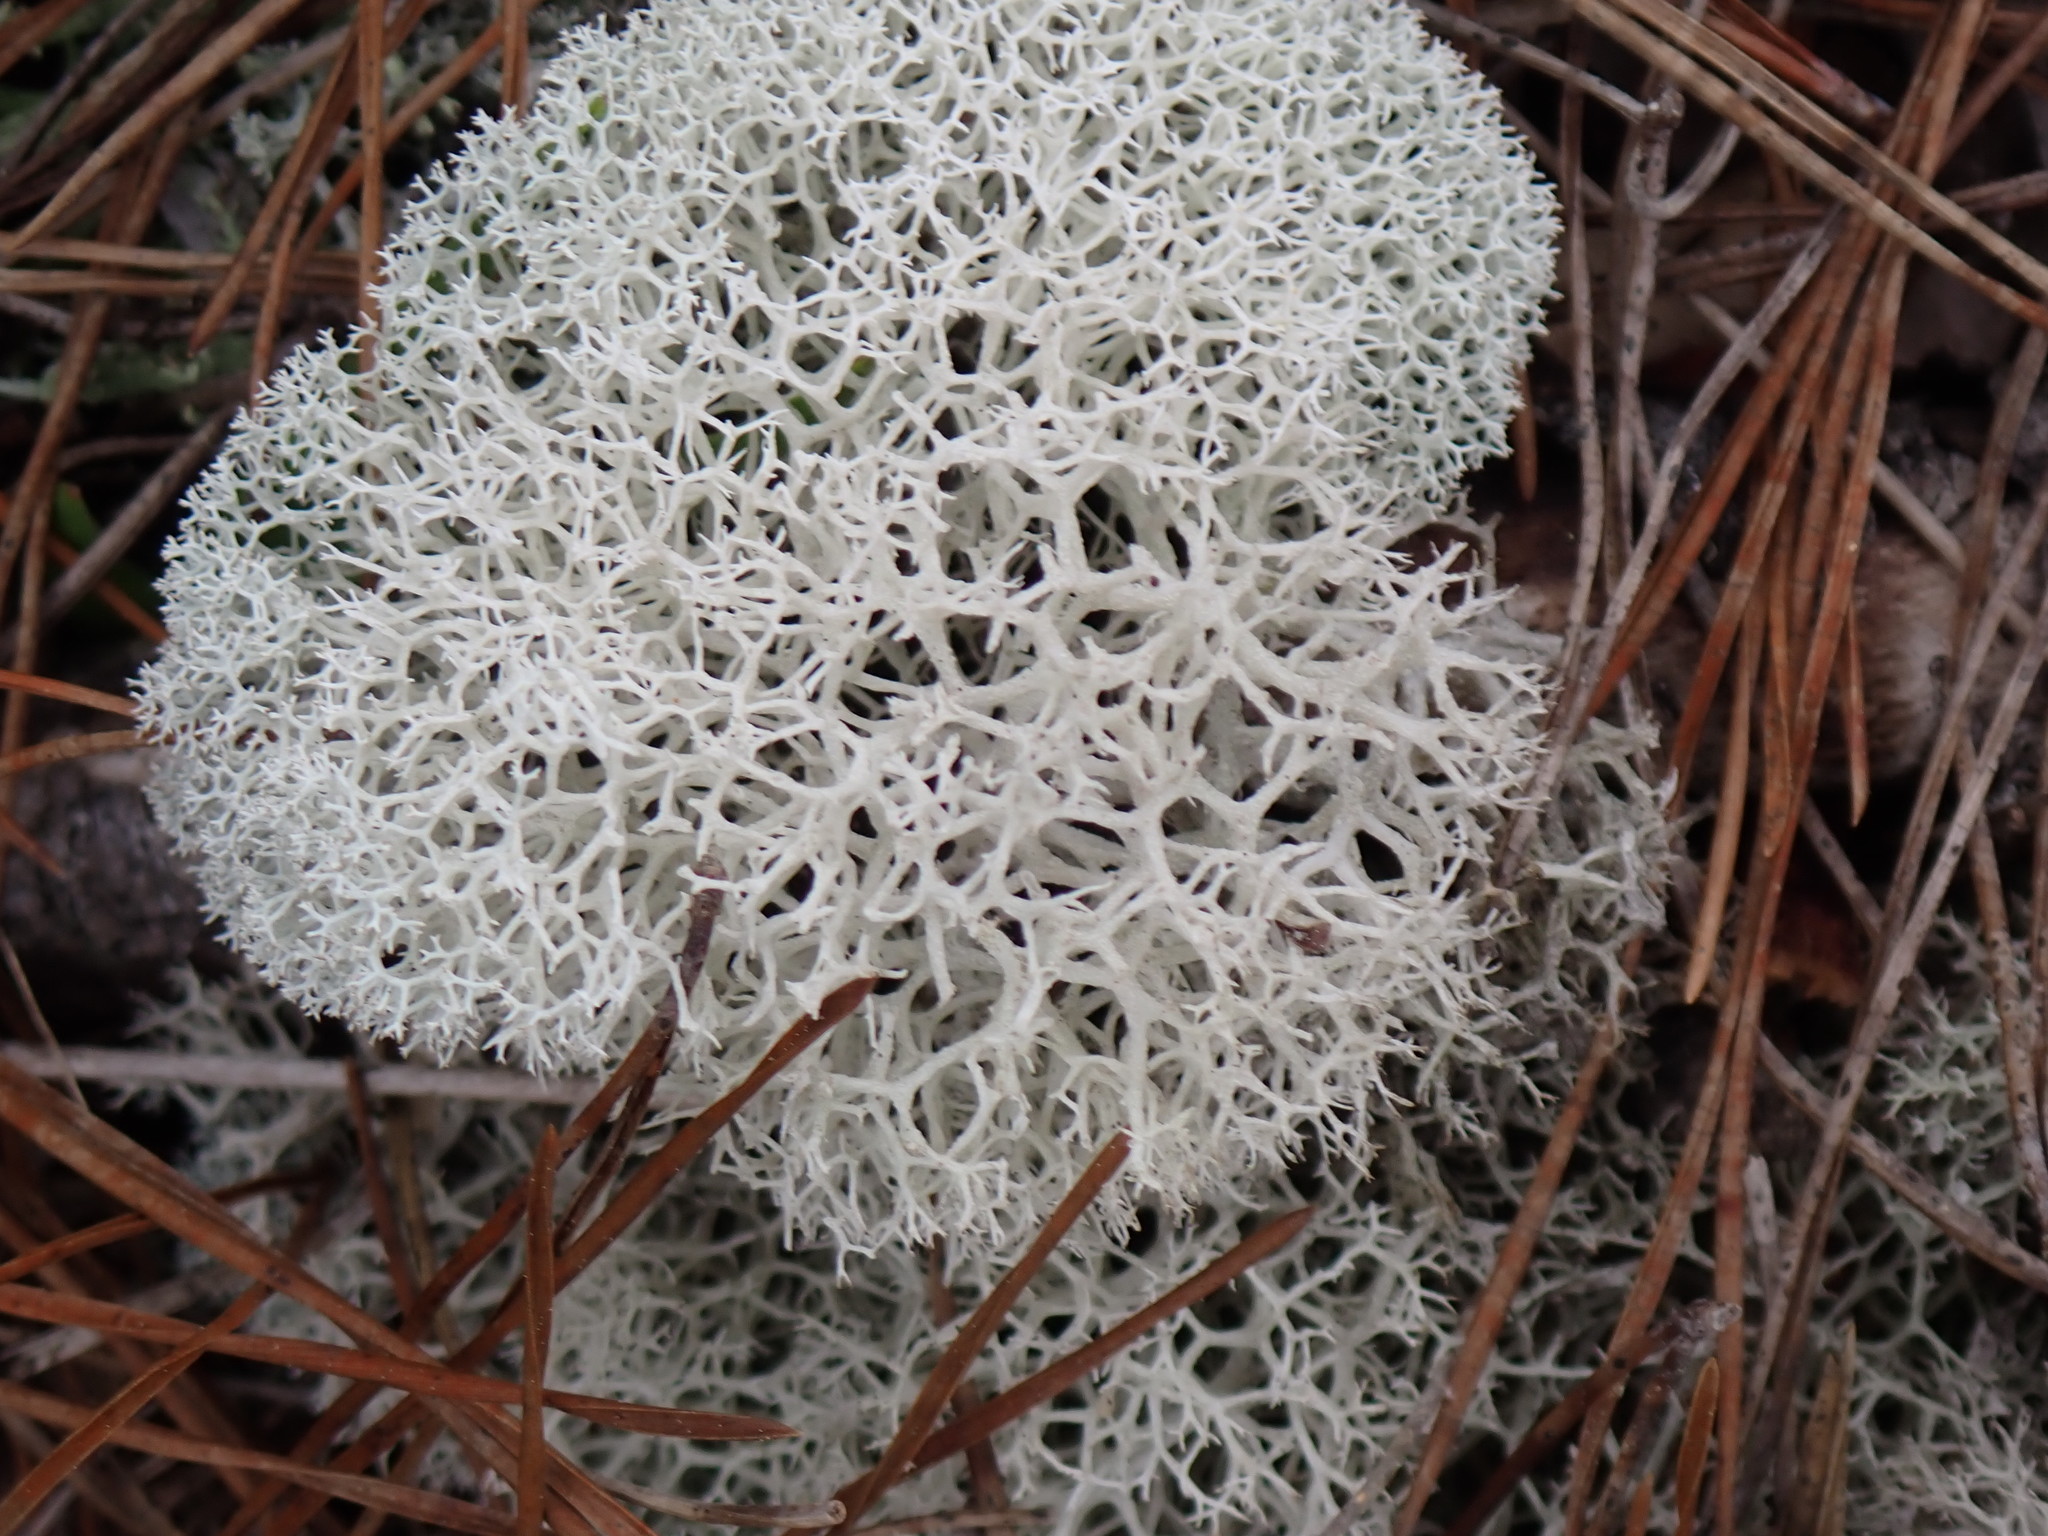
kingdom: Fungi
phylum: Ascomycota
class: Lecanoromycetes
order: Lecanorales
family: Cladoniaceae
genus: Cladonia
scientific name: Cladonia evansii
